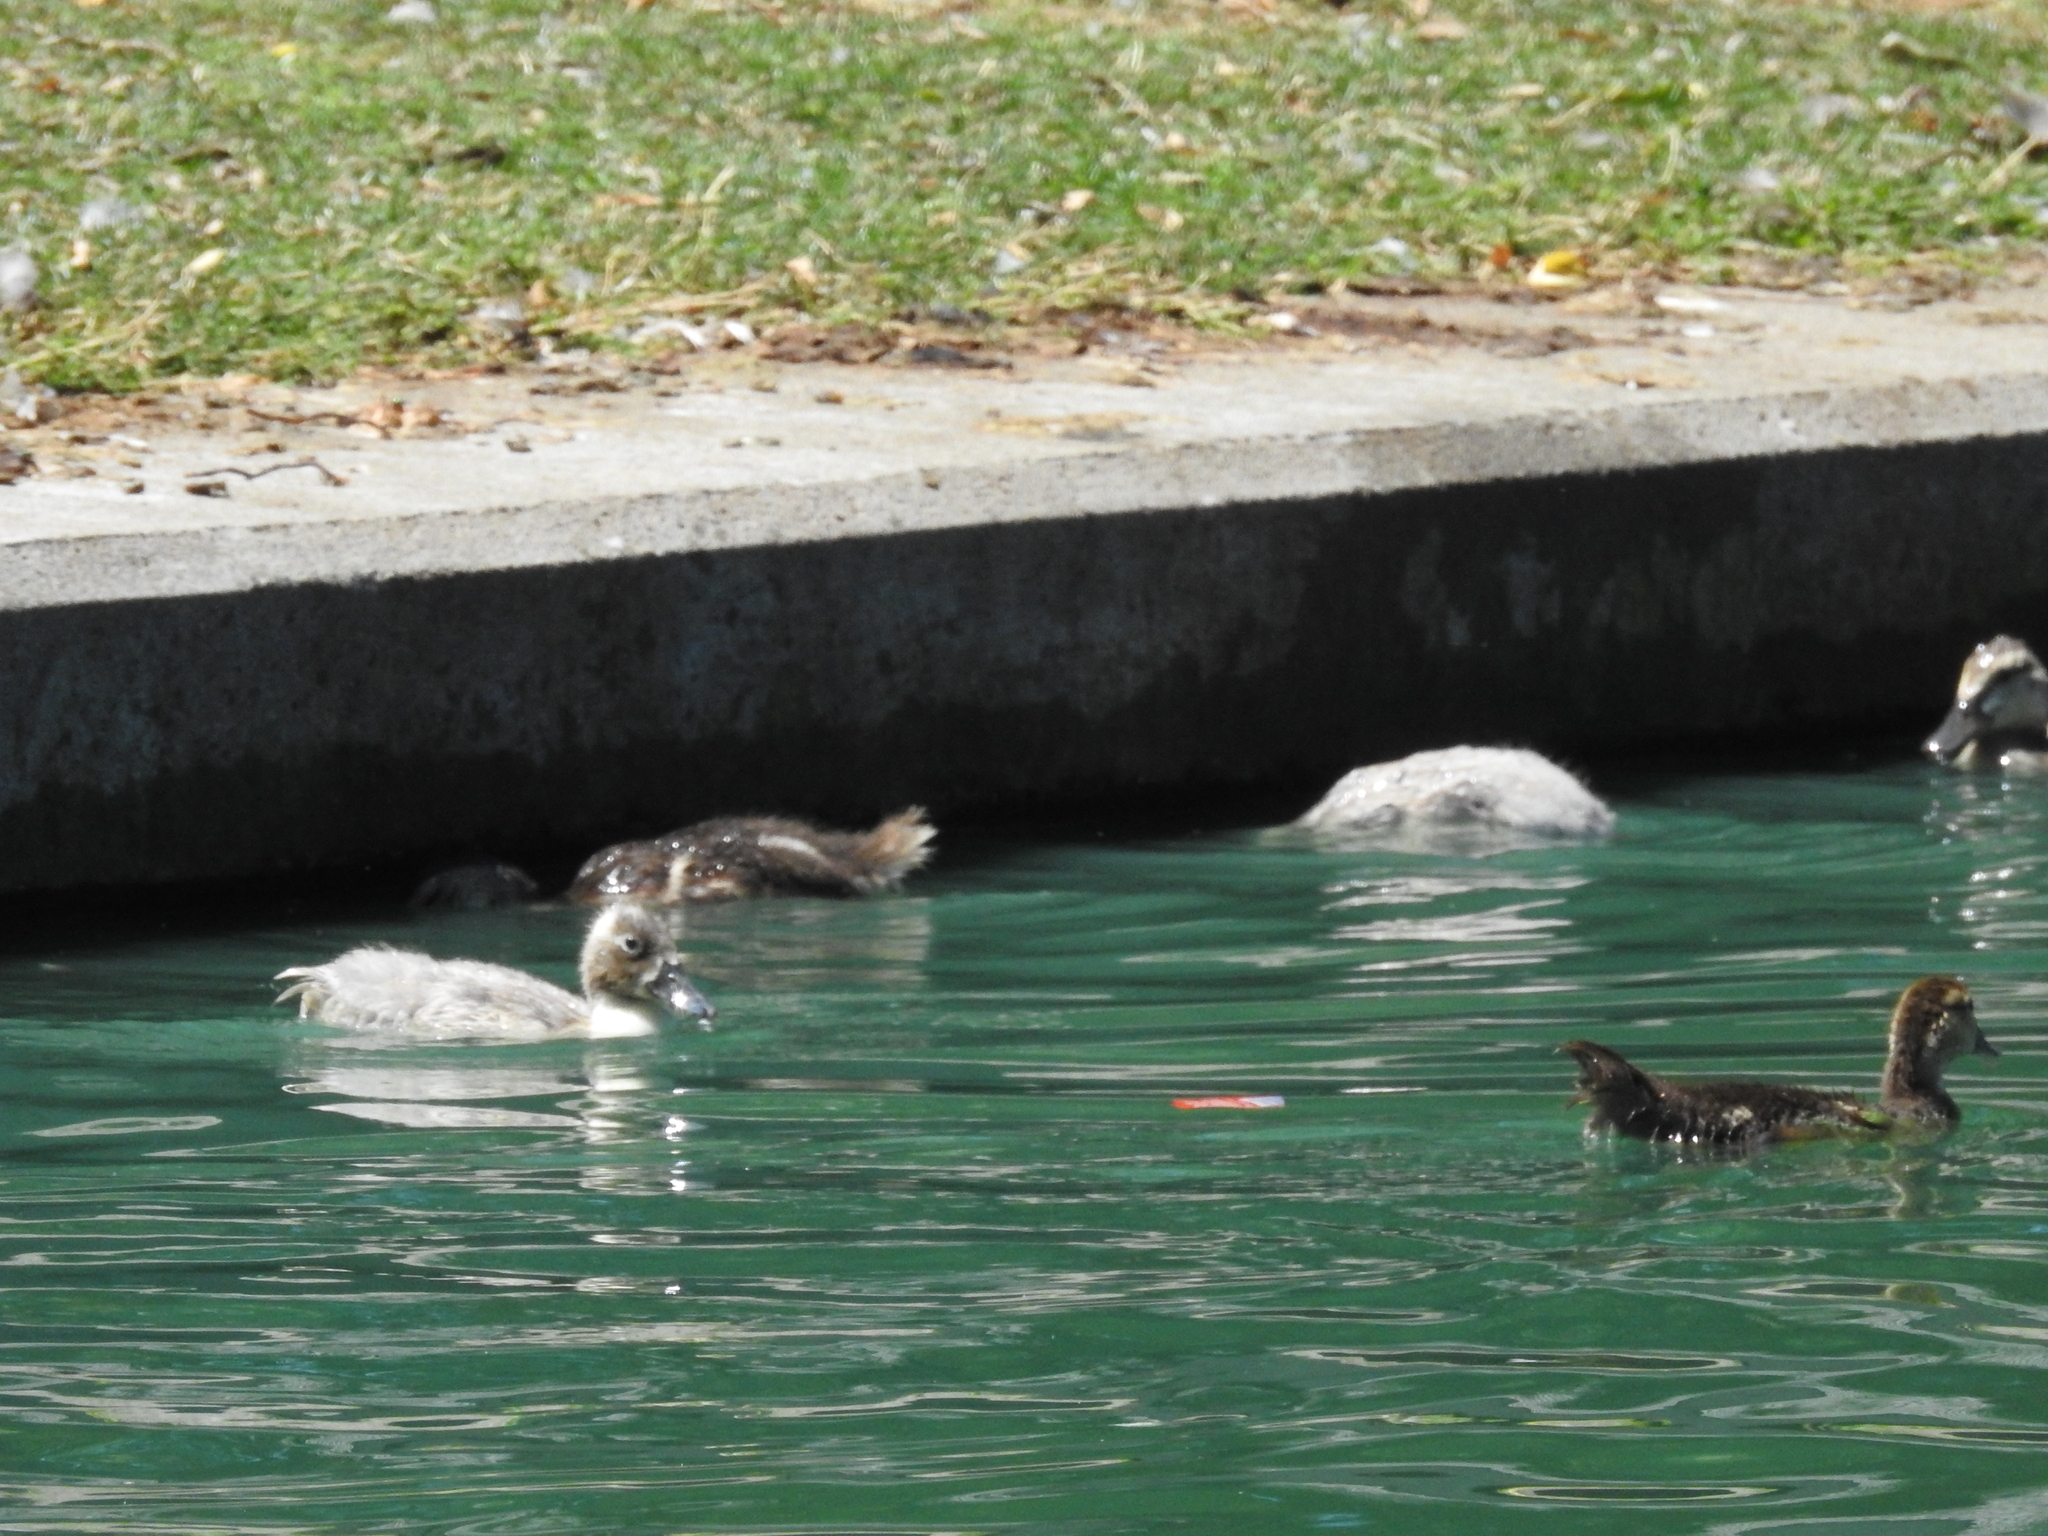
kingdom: Animalia
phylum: Chordata
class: Aves
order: Anseriformes
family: Anatidae
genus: Cairina
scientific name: Cairina moschata
